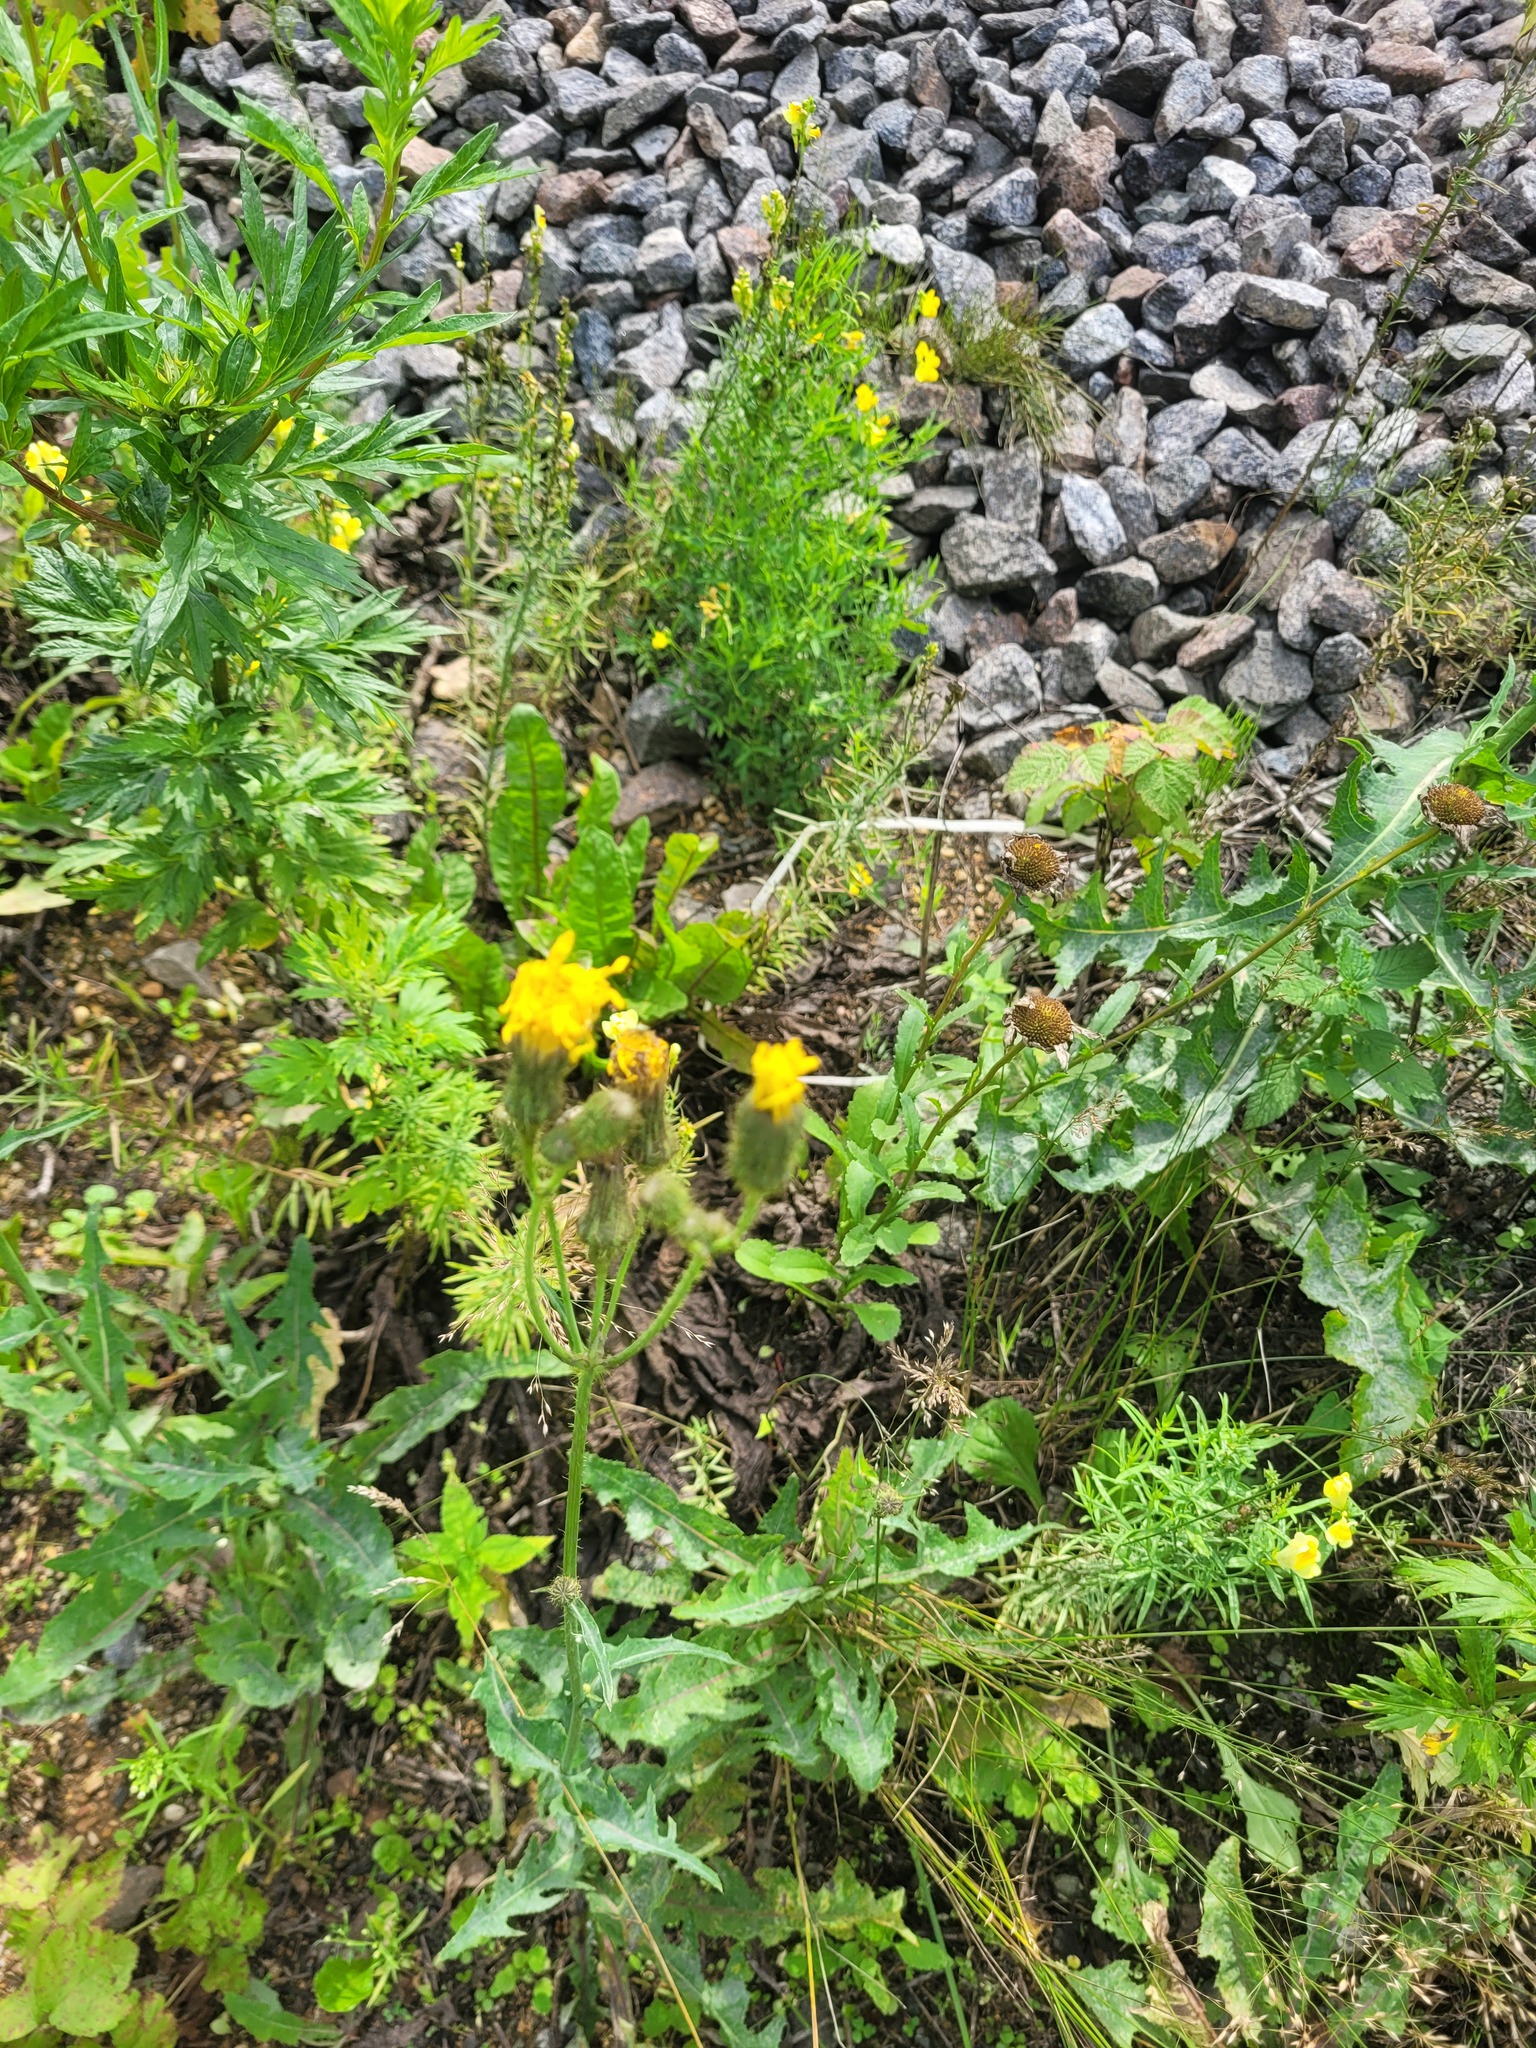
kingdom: Plantae
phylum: Tracheophyta
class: Magnoliopsida
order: Asterales
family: Asteraceae
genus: Sonchus
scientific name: Sonchus arvensis
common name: Perennial sow-thistle
